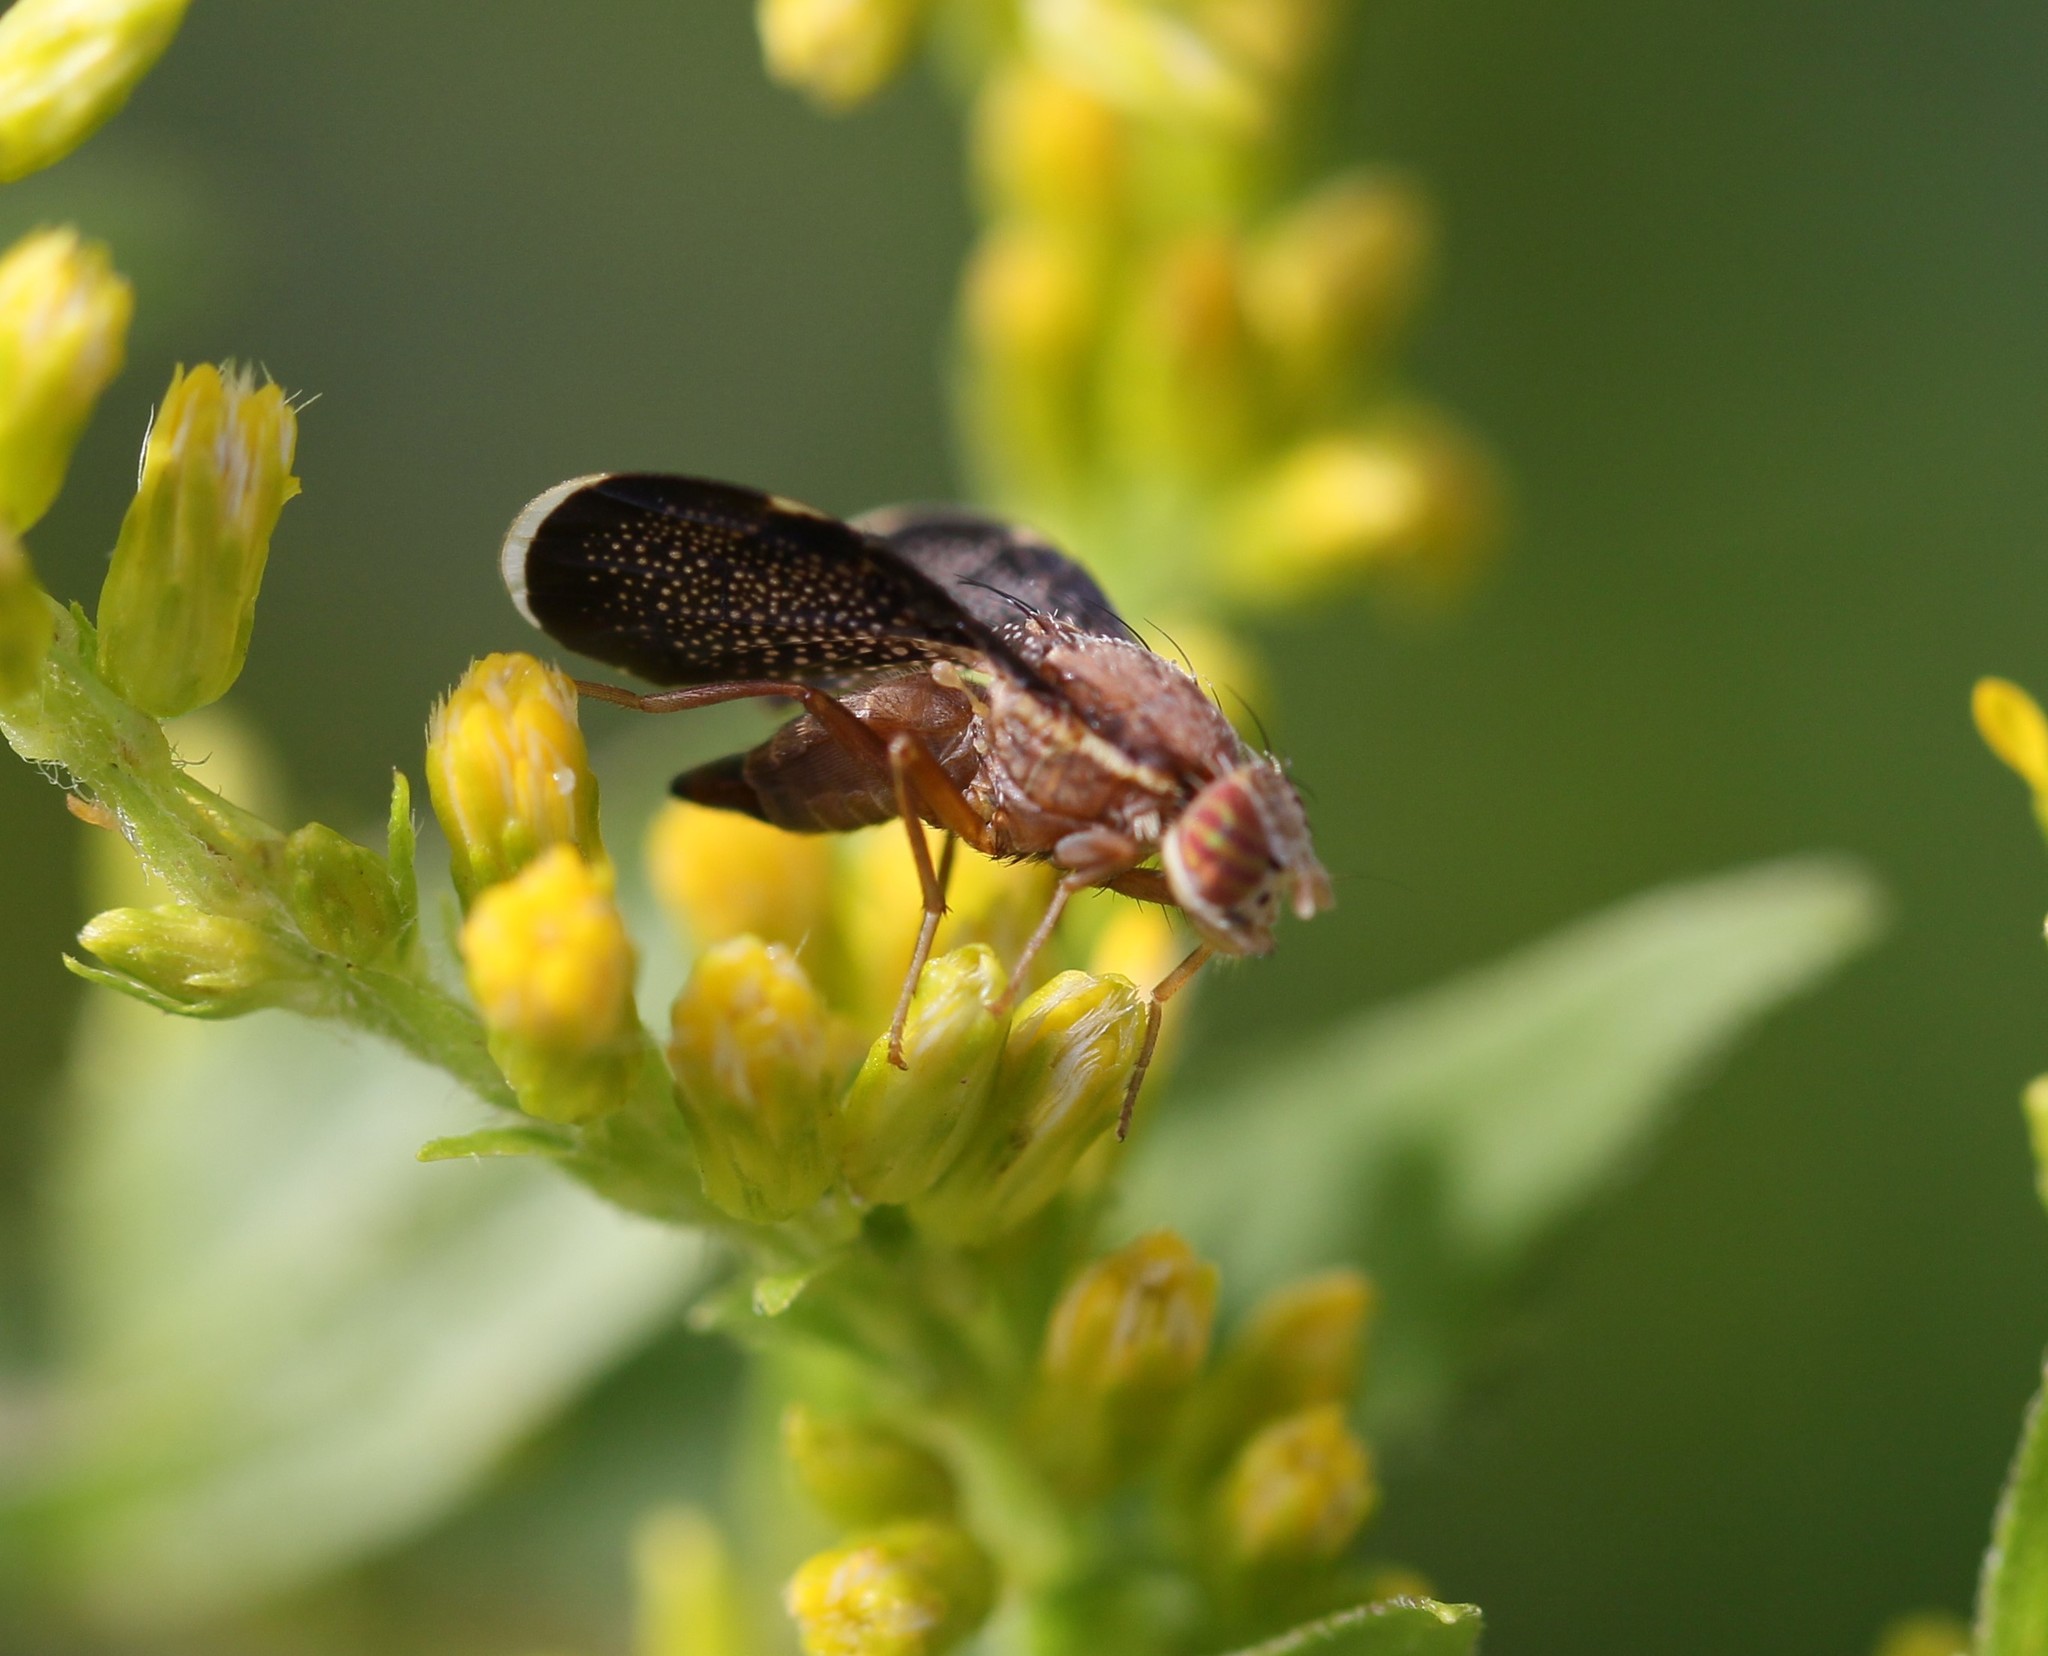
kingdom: Animalia
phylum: Arthropoda
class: Insecta
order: Diptera
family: Tephritidae
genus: Eutreta
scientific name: Eutreta novaeboracensis
